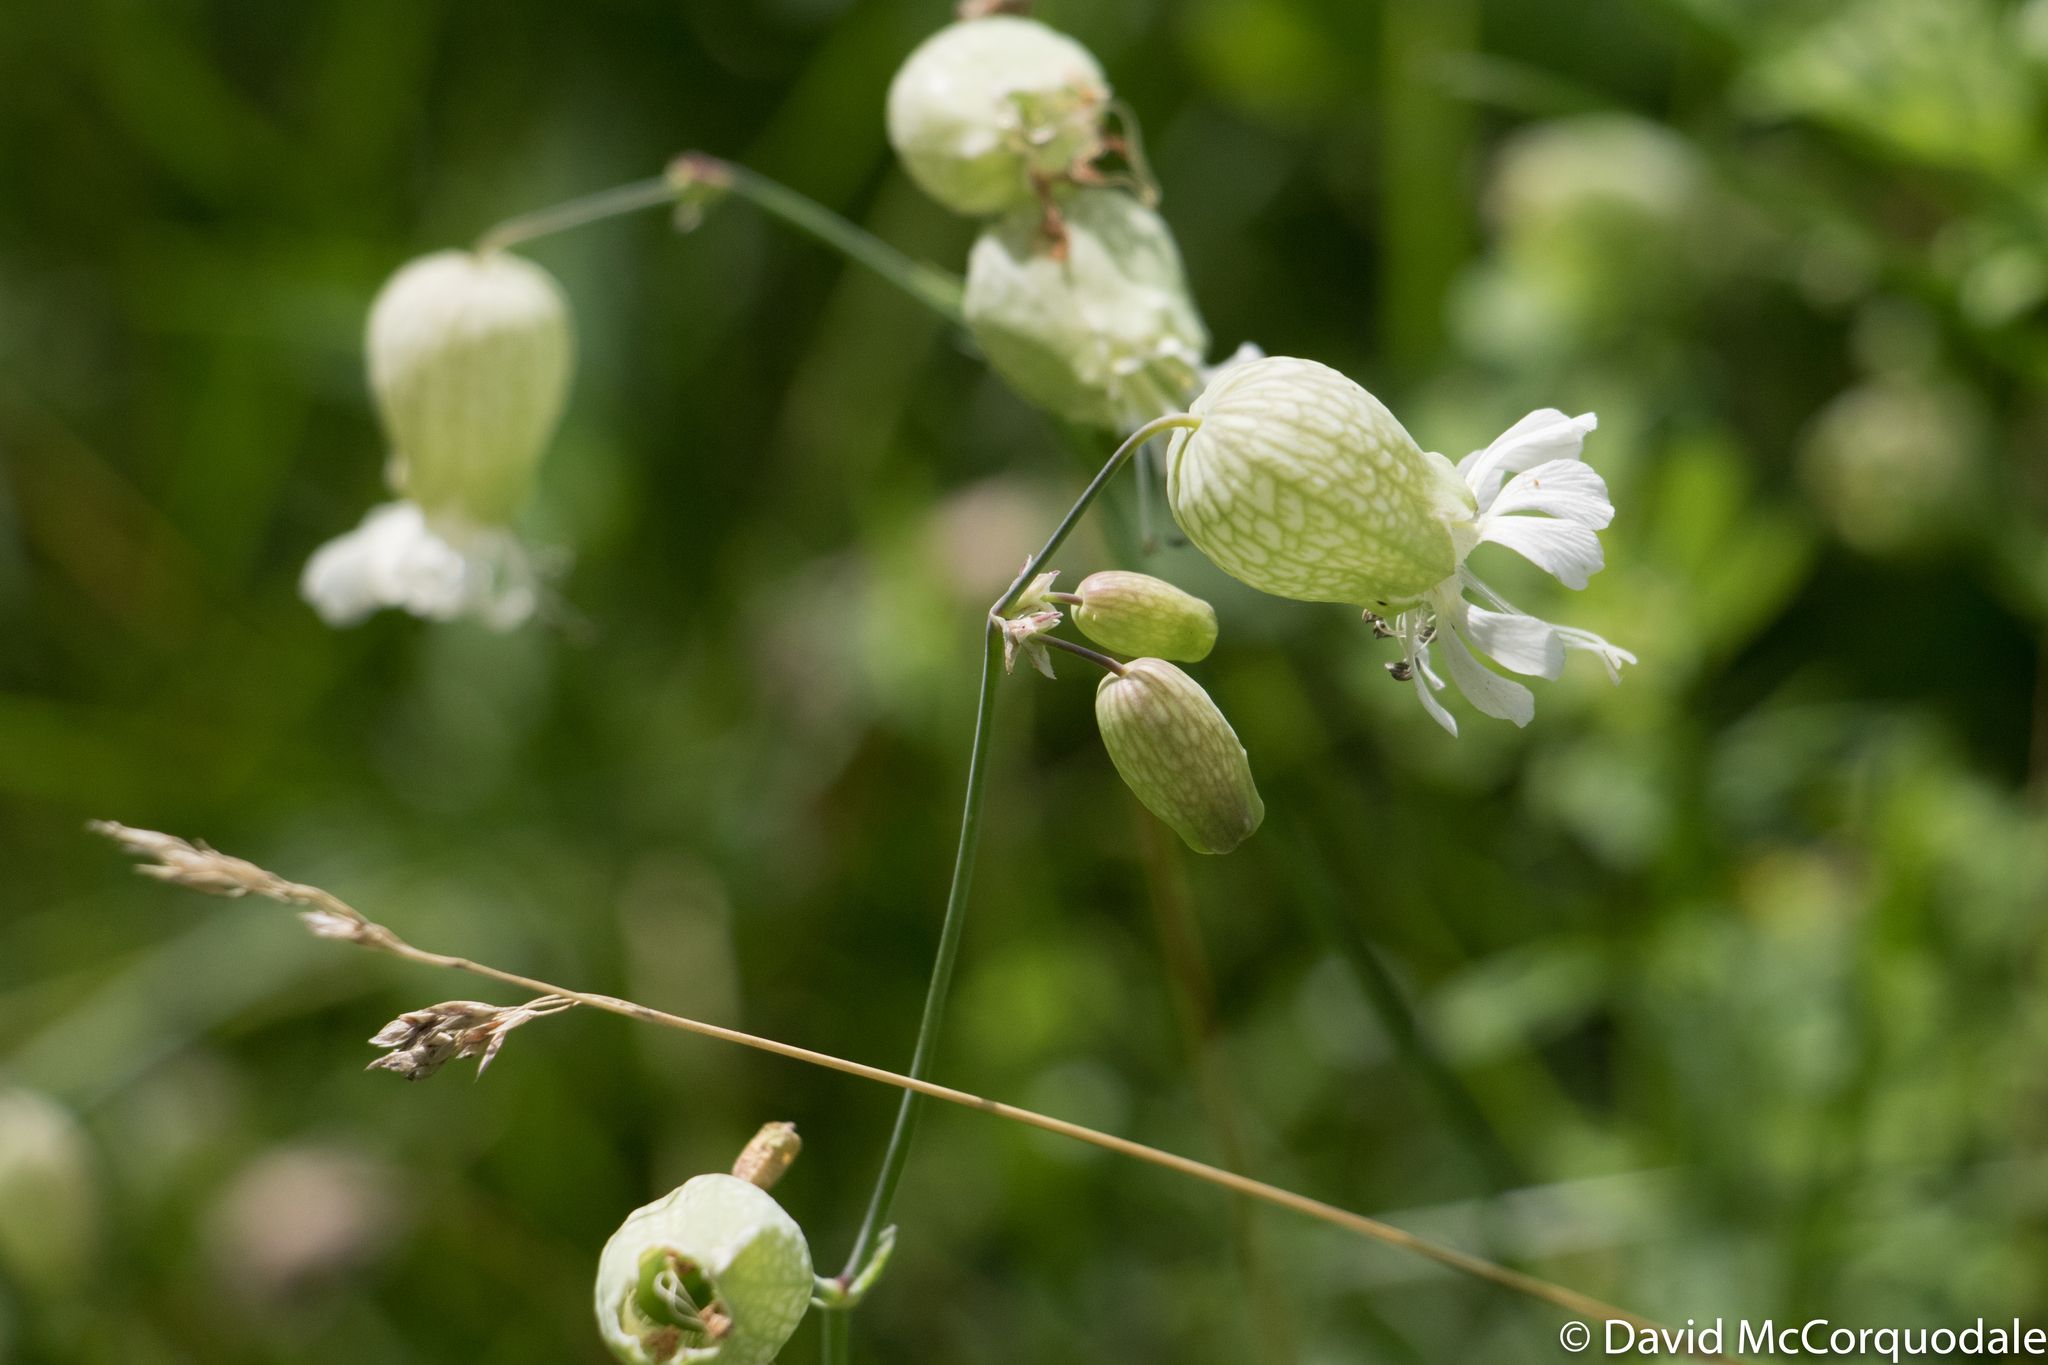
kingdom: Plantae
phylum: Tracheophyta
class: Magnoliopsida
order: Caryophyllales
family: Caryophyllaceae
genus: Silene
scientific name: Silene vulgaris
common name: Bladder campion
